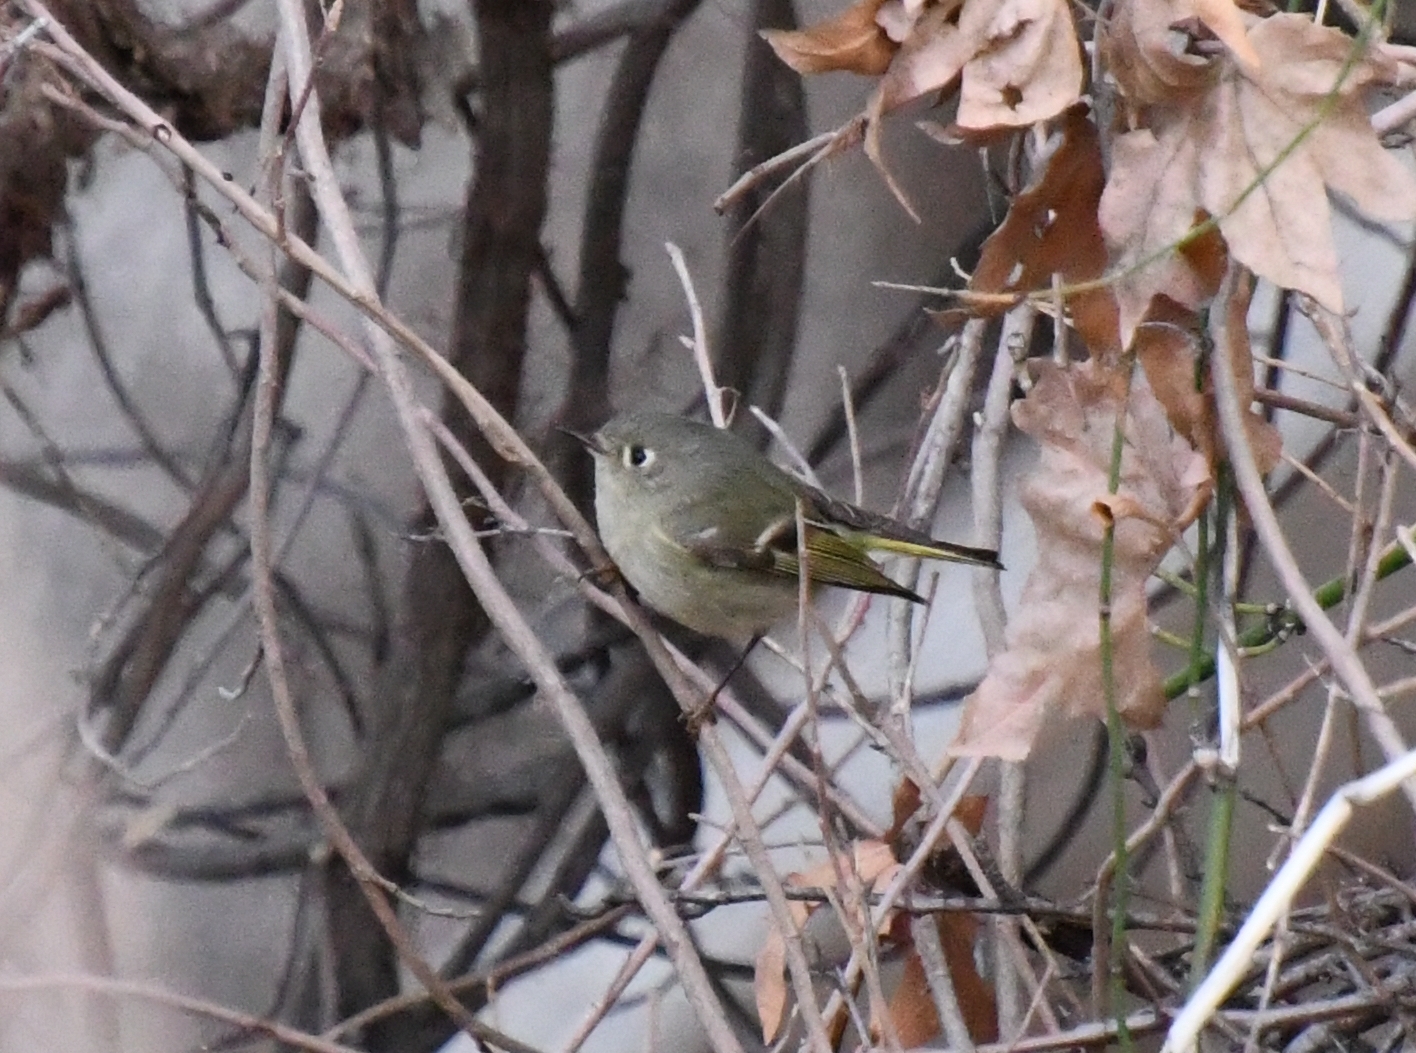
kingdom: Animalia
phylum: Chordata
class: Aves
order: Passeriformes
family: Regulidae
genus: Regulus
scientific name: Regulus calendula
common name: Ruby-crowned kinglet
